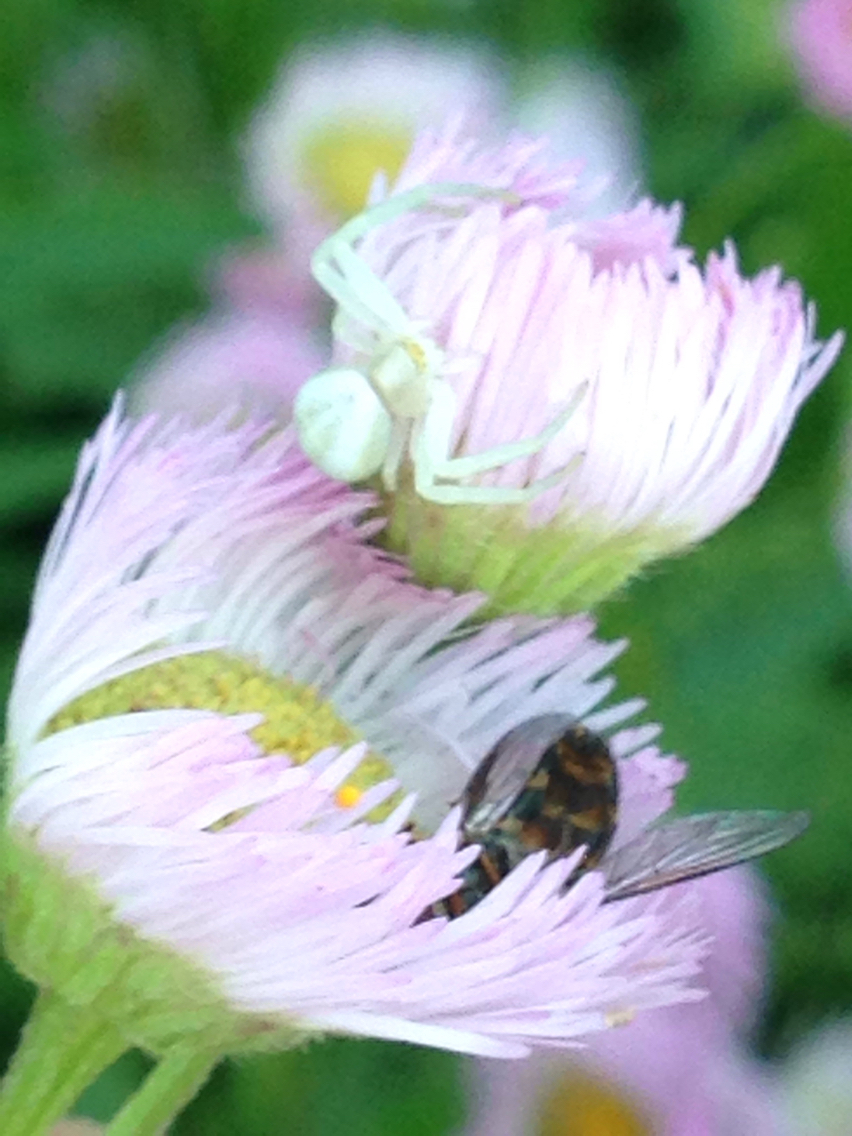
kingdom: Animalia
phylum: Arthropoda
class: Arachnida
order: Araneae
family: Thomisidae
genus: Misumena
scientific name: Misumena vatia
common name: Goldenrod crab spider
